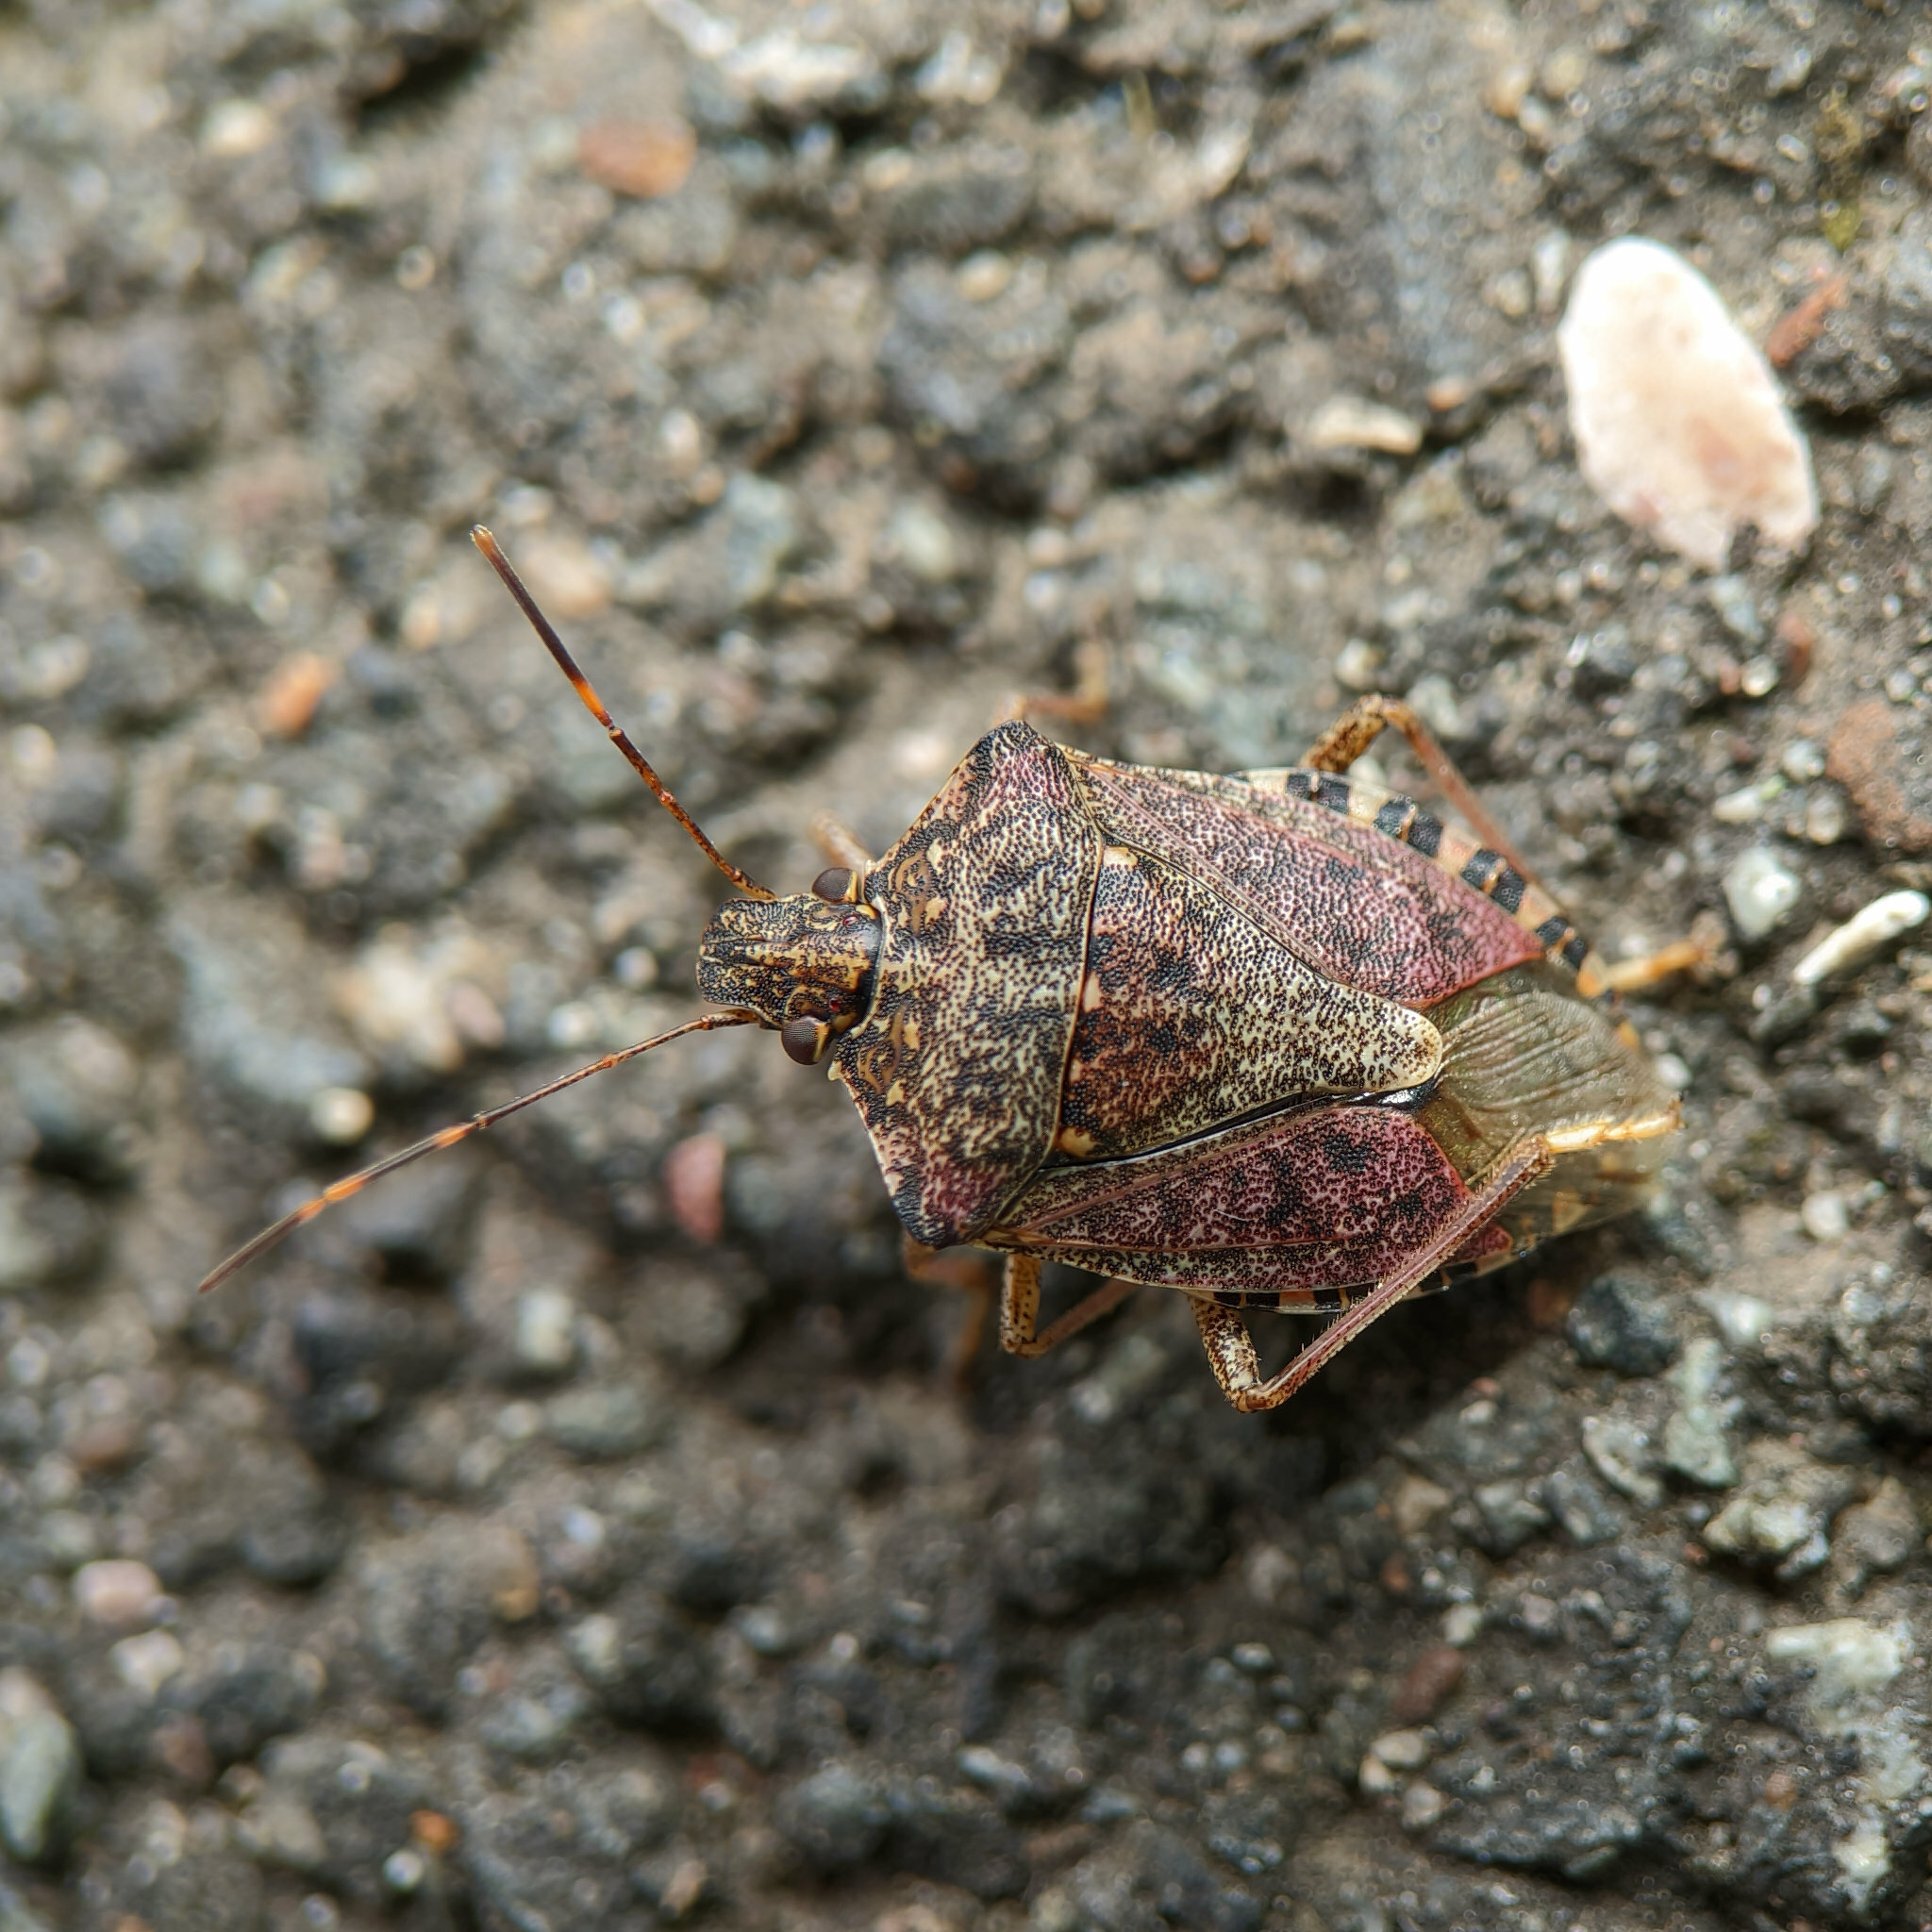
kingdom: Animalia
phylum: Arthropoda
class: Insecta
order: Hemiptera
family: Pentatomidae
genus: Halyomorpha
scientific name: Halyomorpha halys
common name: Brown marmorated stink bug
